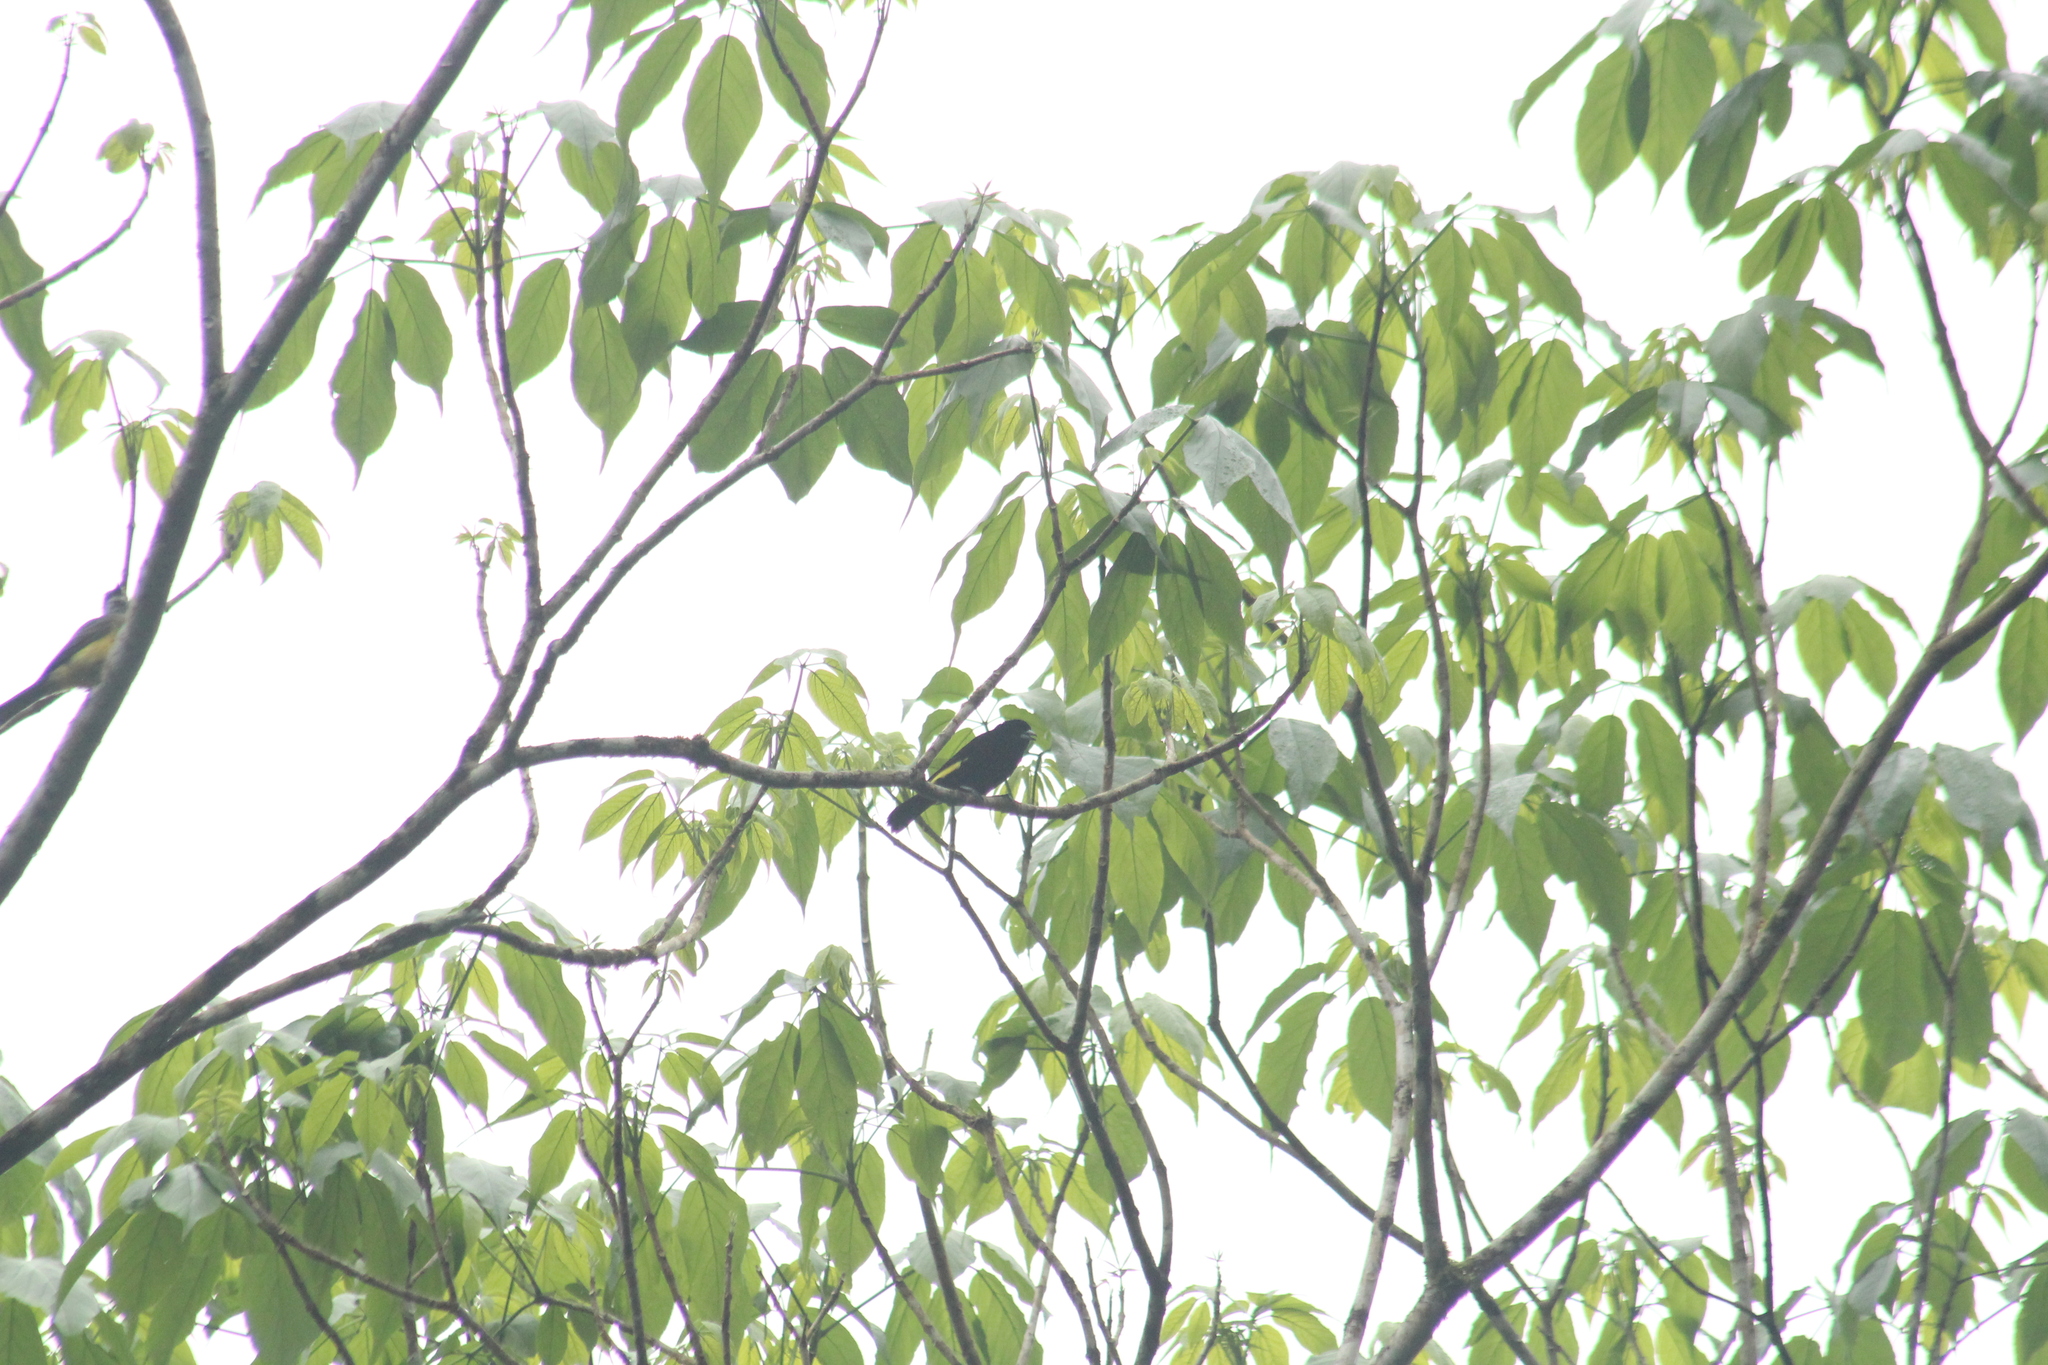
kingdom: Animalia
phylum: Chordata
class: Aves
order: Passeriformes
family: Thraupidae
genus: Ramphocelus
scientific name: Ramphocelus icteronotus
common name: Lemon-rumped tanager
